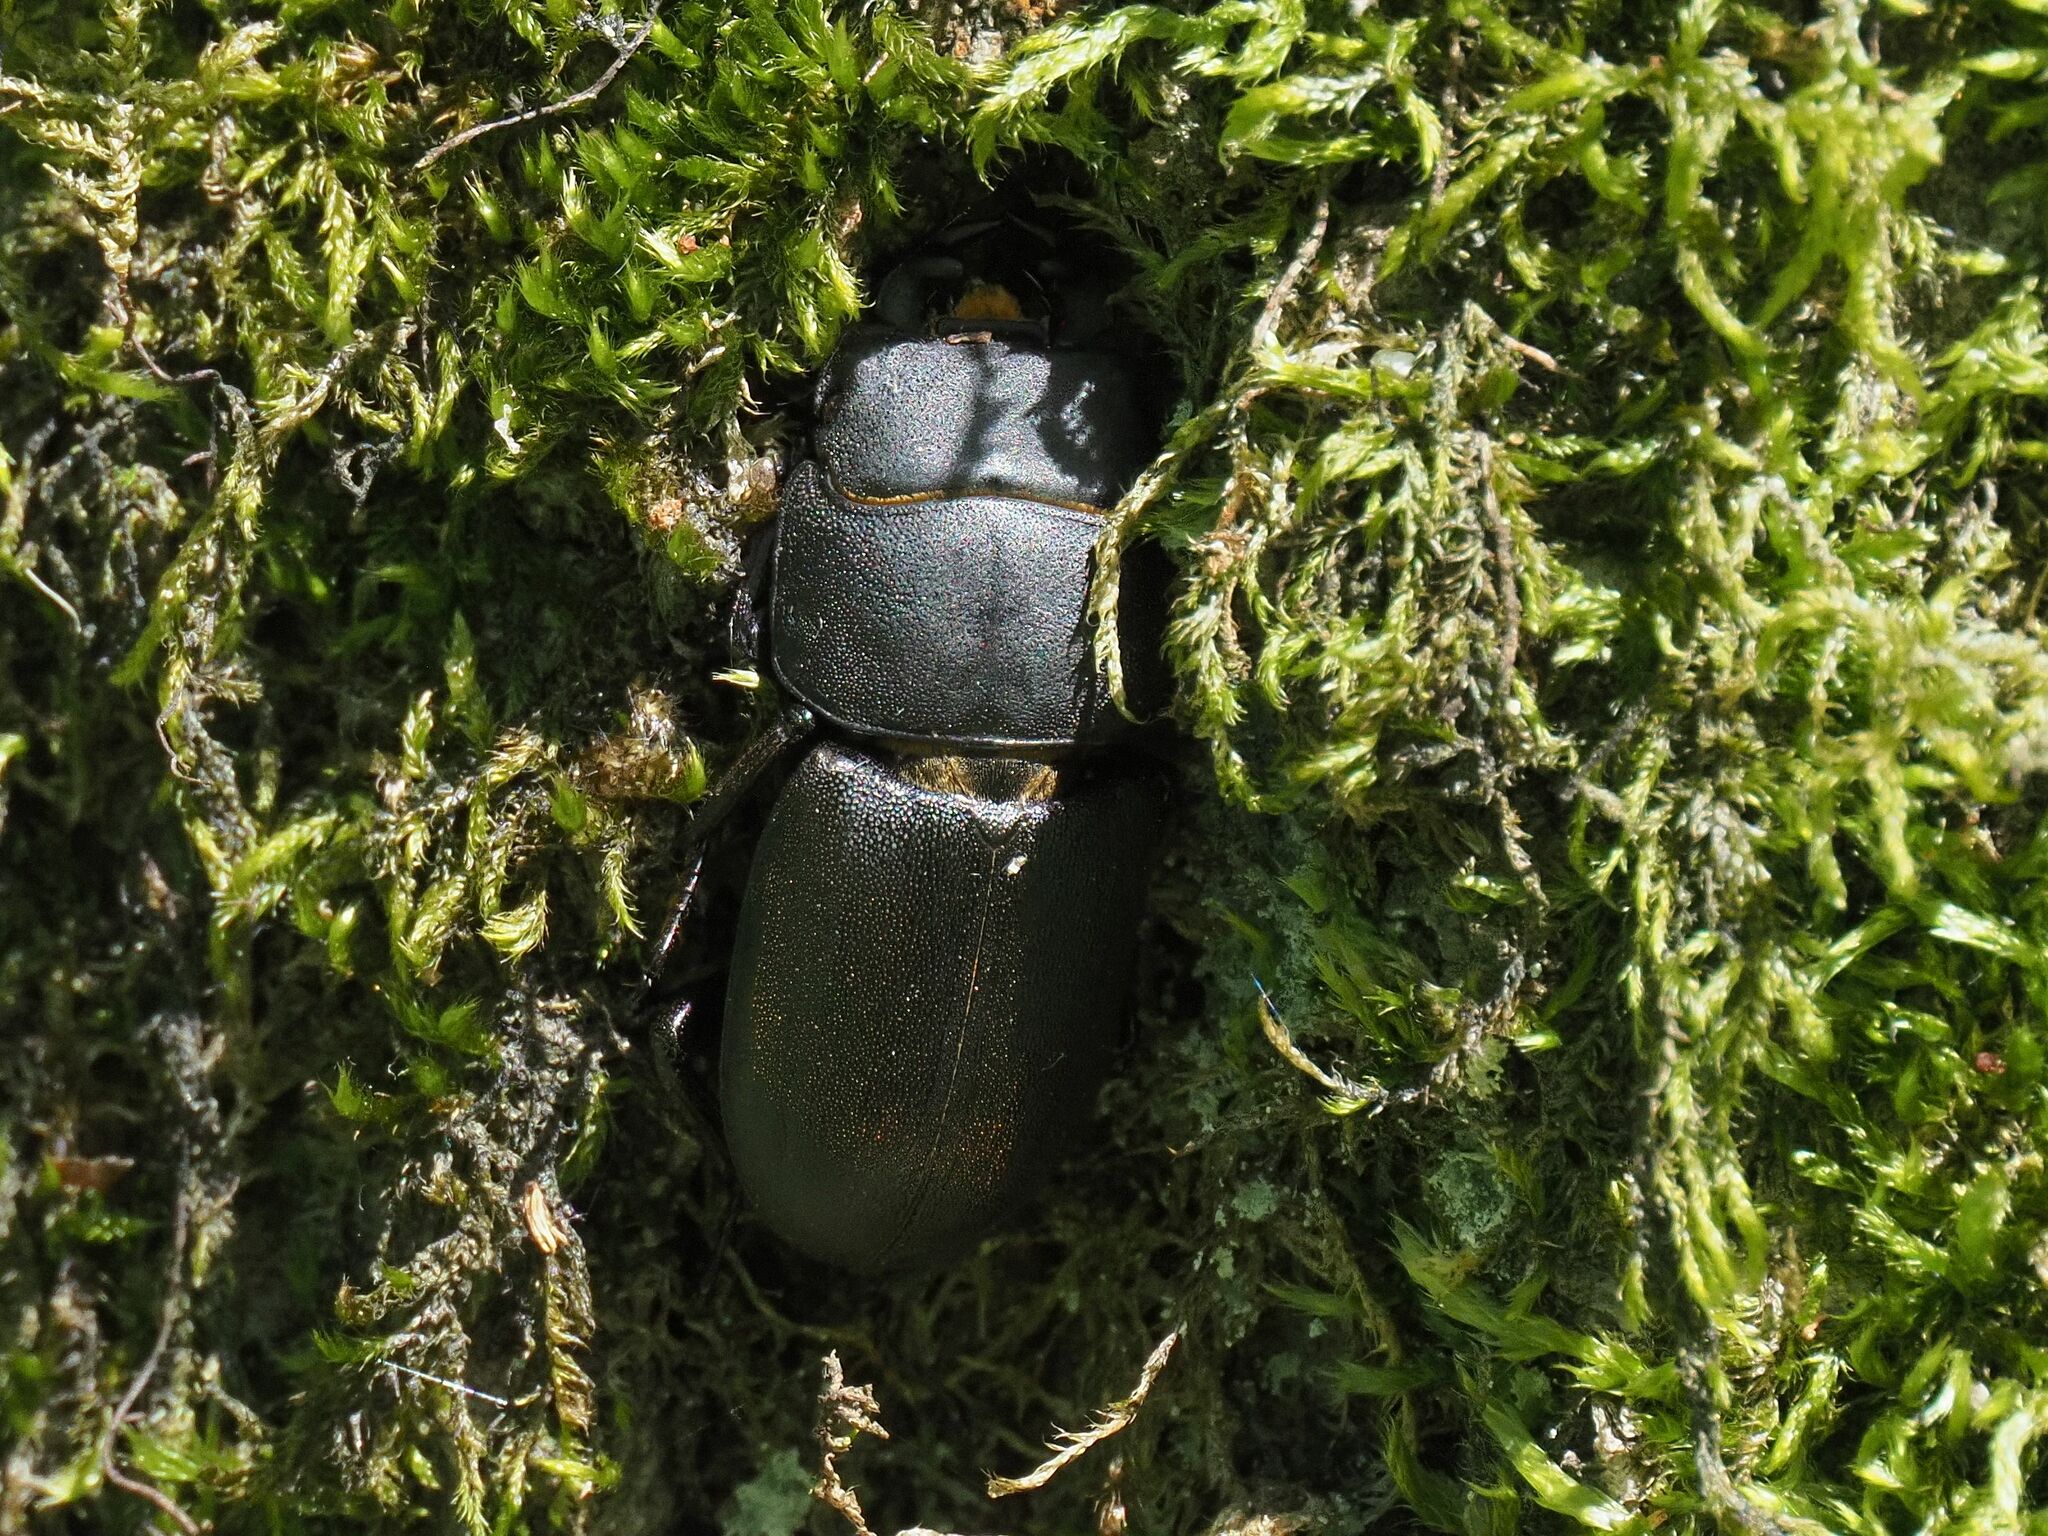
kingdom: Animalia
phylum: Arthropoda
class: Insecta
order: Coleoptera
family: Lucanidae
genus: Dorcus
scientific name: Dorcus parallelipipedus
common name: Lesser stag beetle
